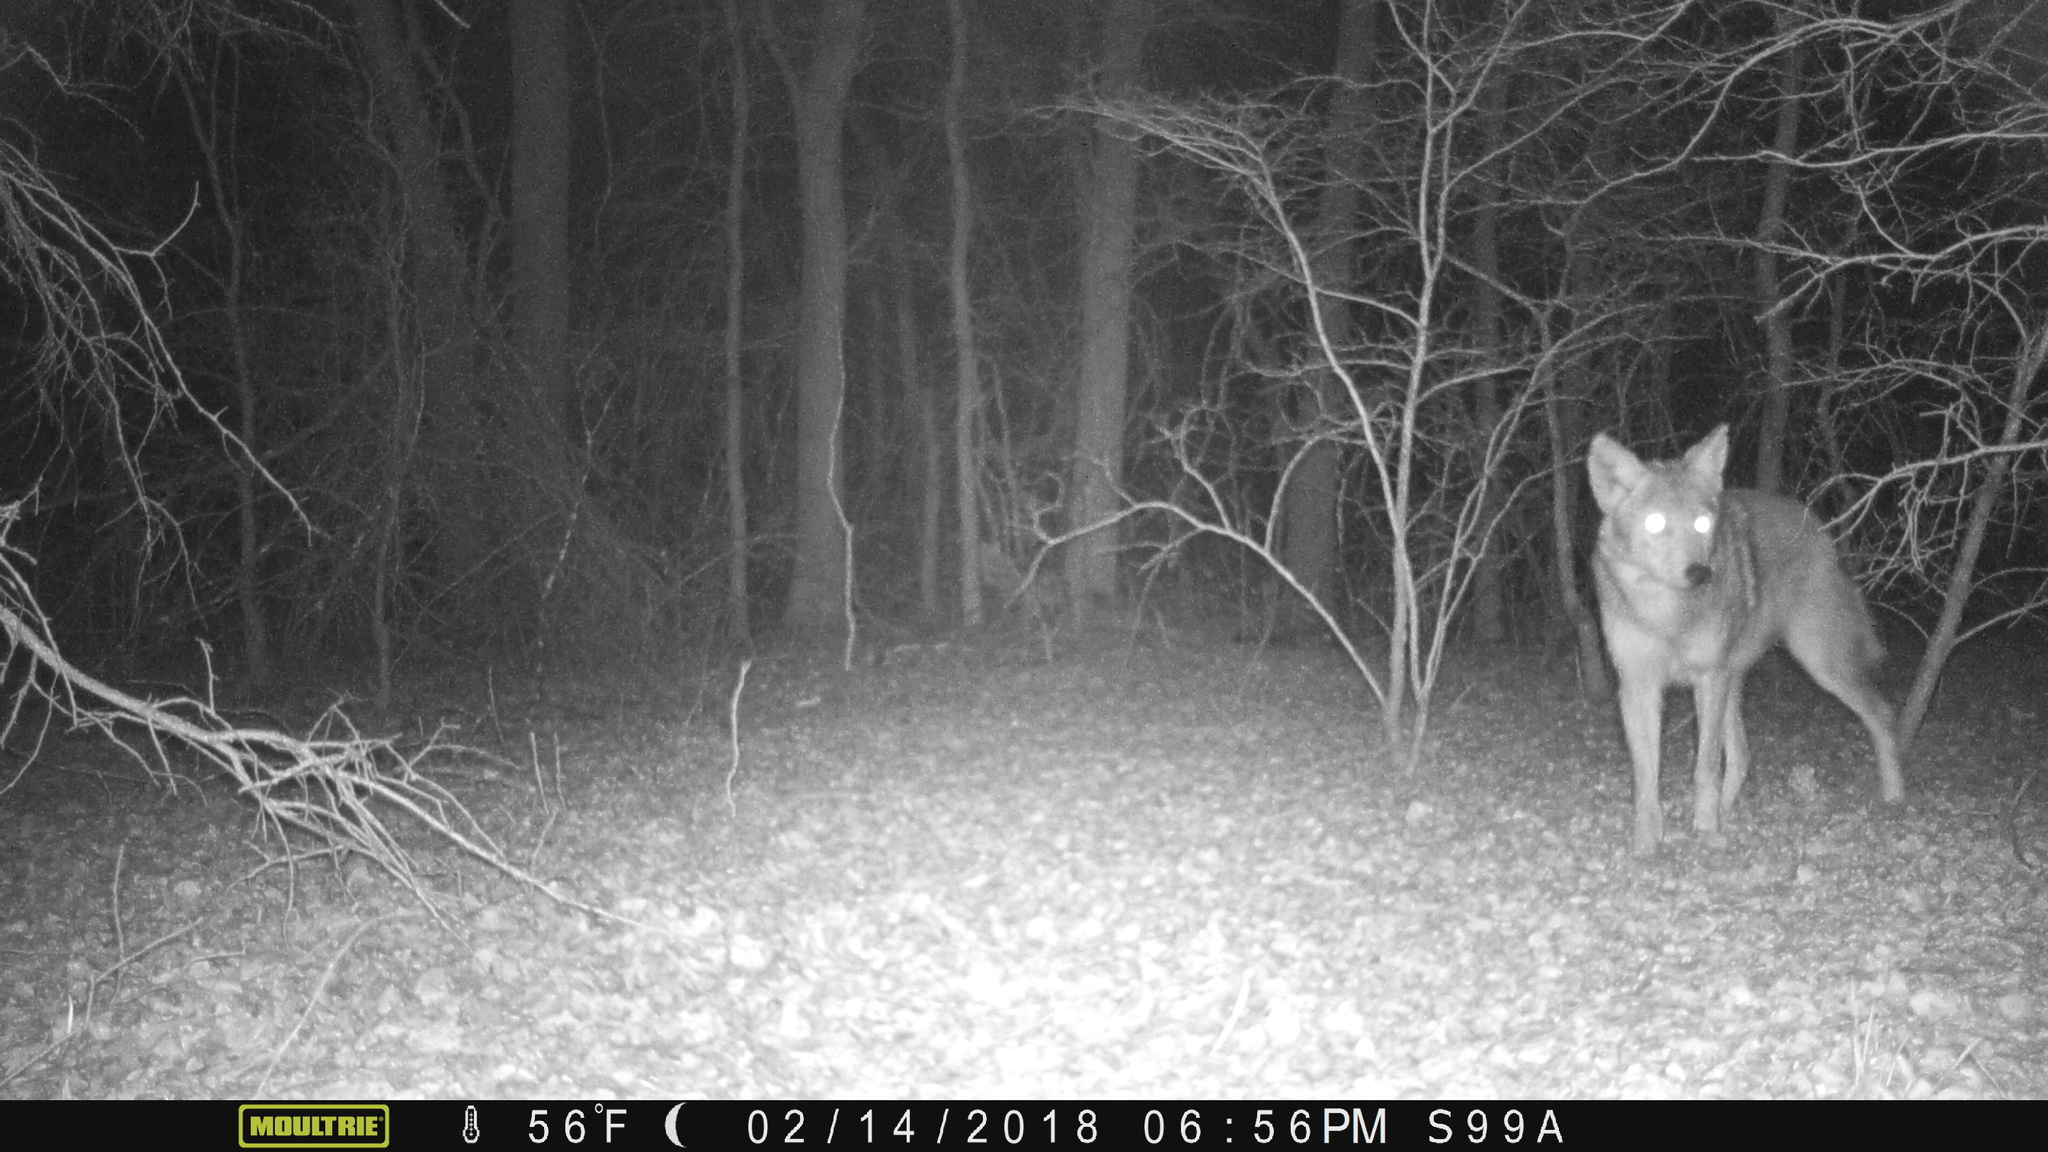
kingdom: Animalia
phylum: Chordata
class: Mammalia
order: Carnivora
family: Canidae
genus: Canis
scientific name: Canis latrans
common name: Coyote
